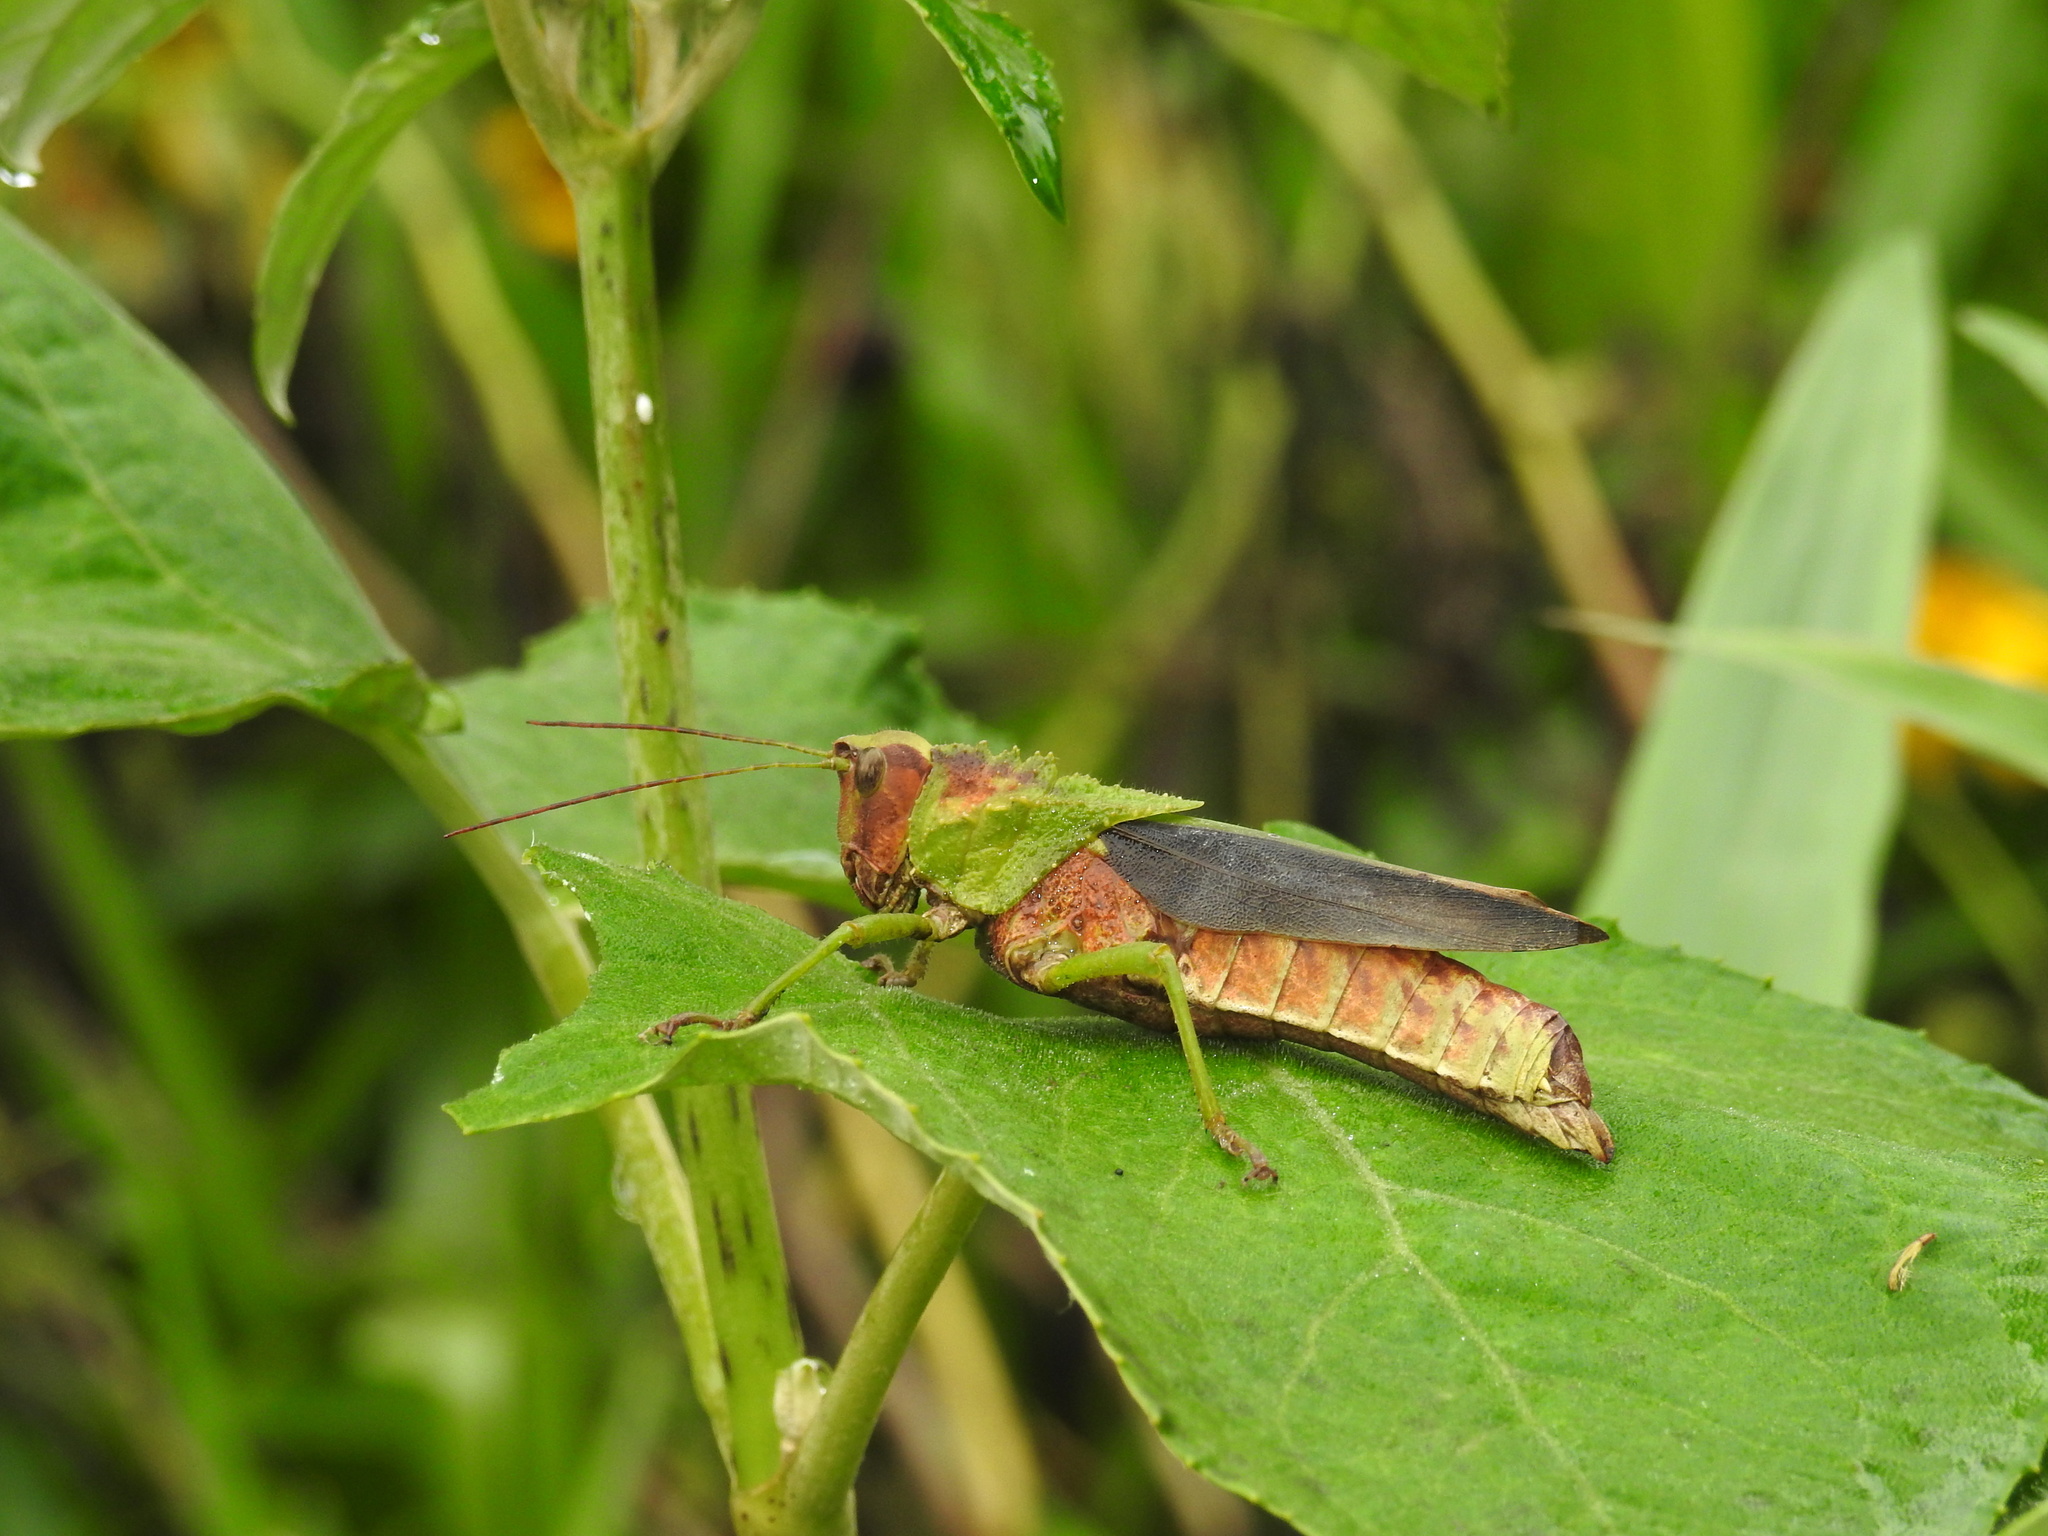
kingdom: Animalia
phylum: Arthropoda
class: Insecta
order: Orthoptera
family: Romaleidae
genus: Agriacris
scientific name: Agriacris magnifica
